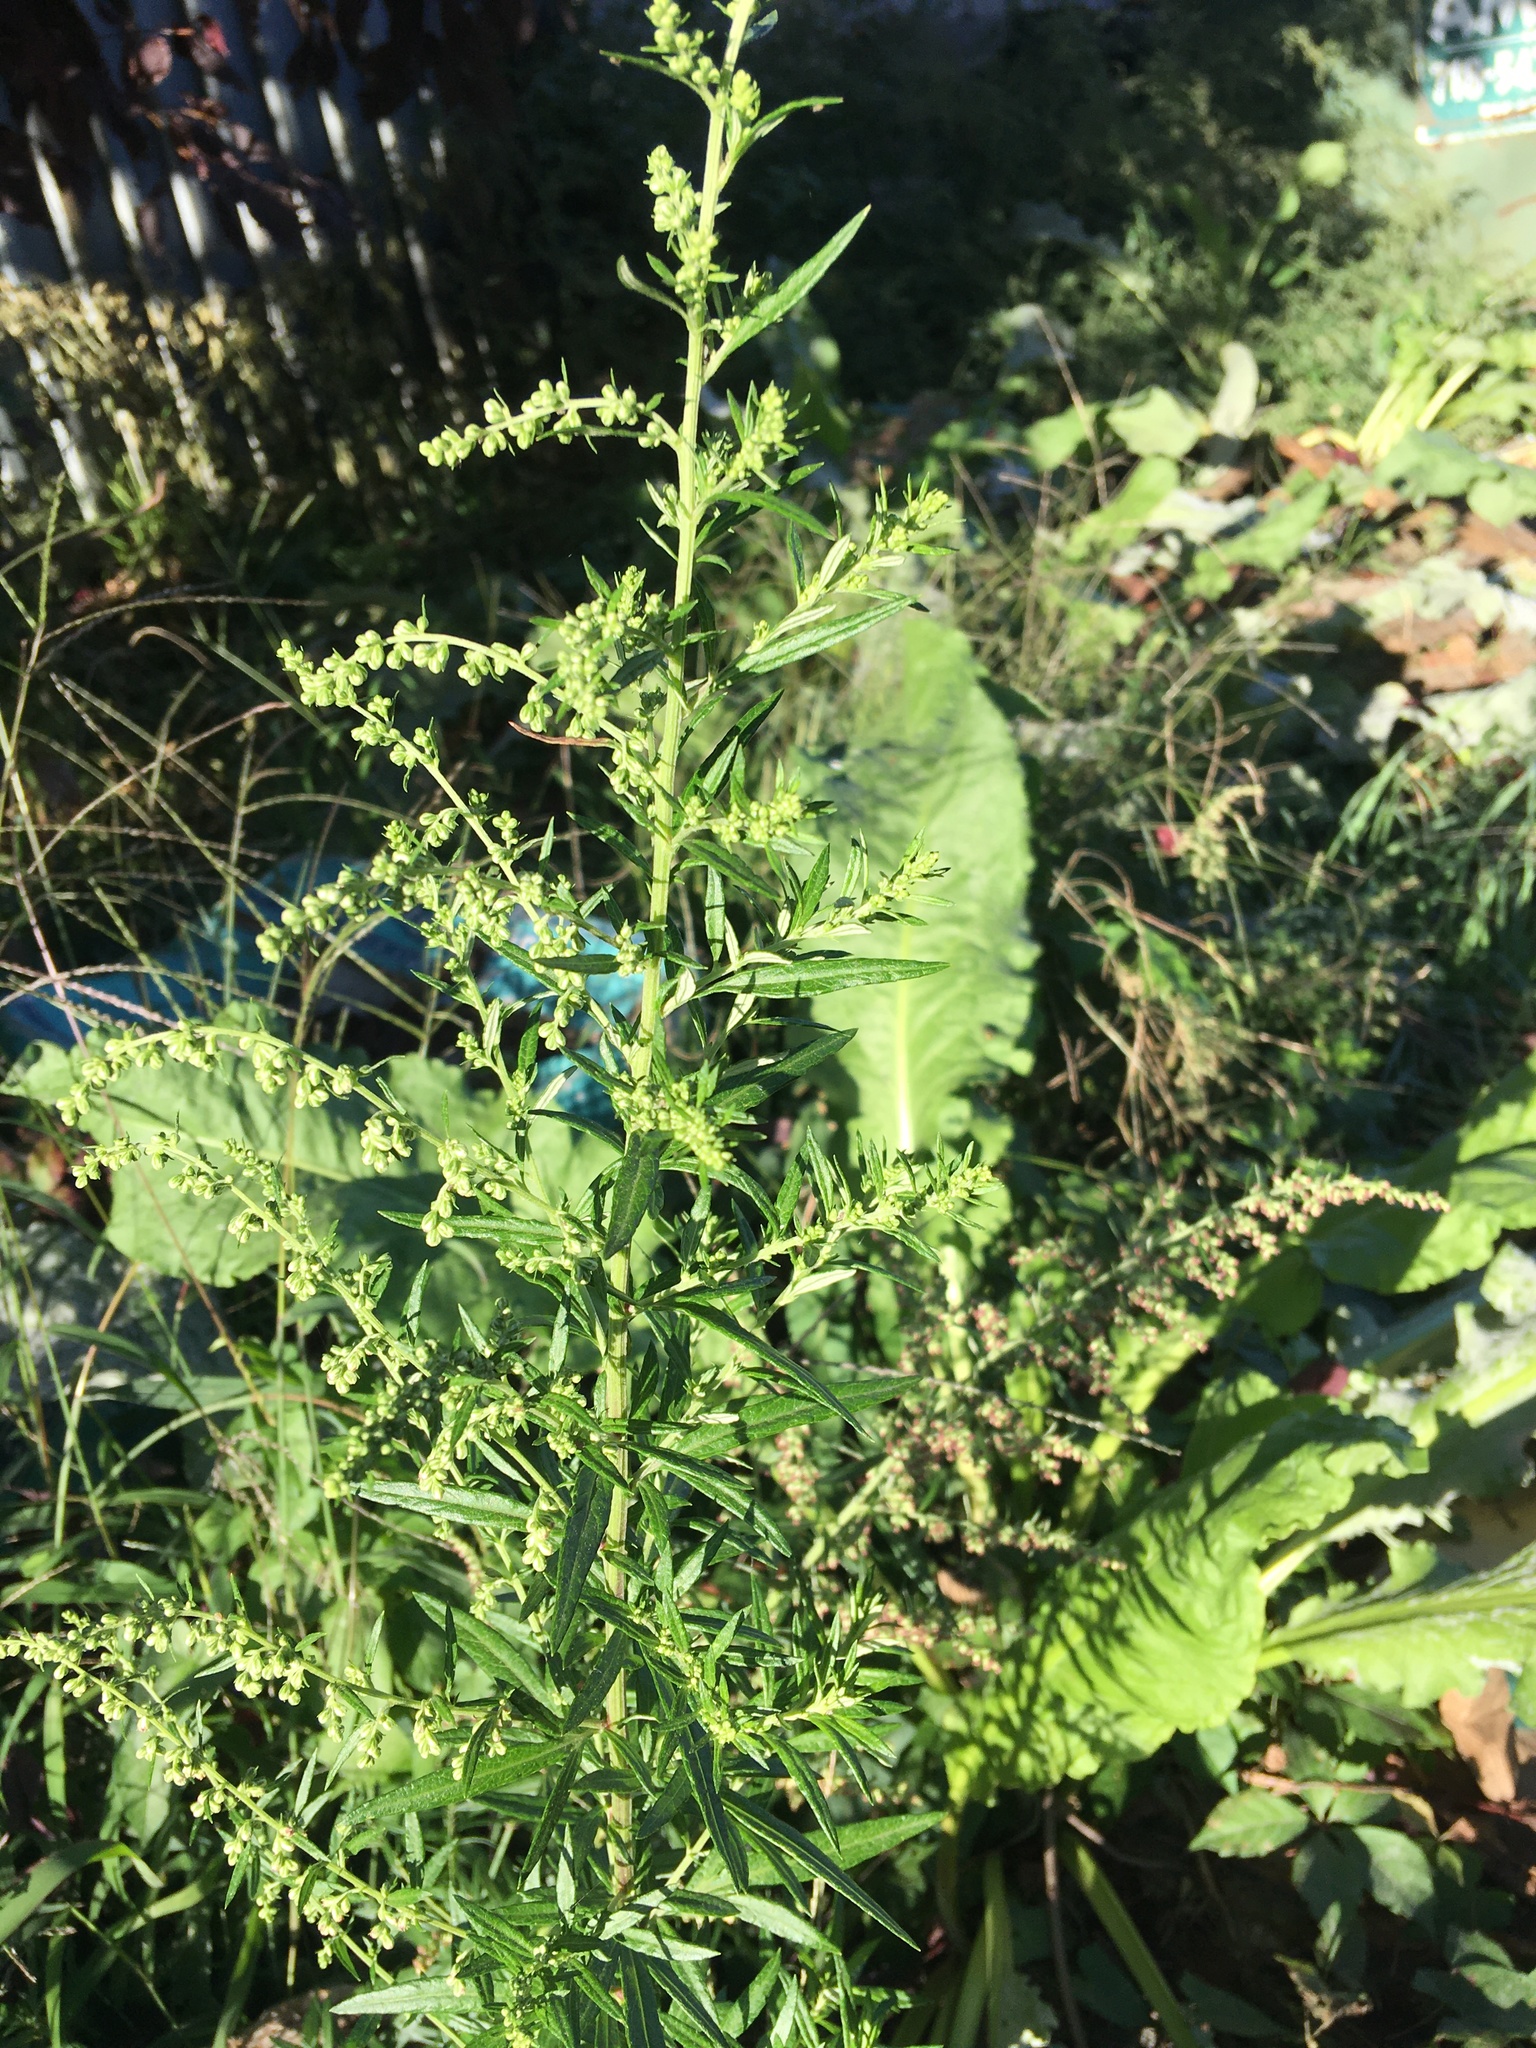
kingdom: Plantae
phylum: Tracheophyta
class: Magnoliopsida
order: Asterales
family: Asteraceae
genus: Artemisia
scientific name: Artemisia vulgaris
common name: Mugwort
